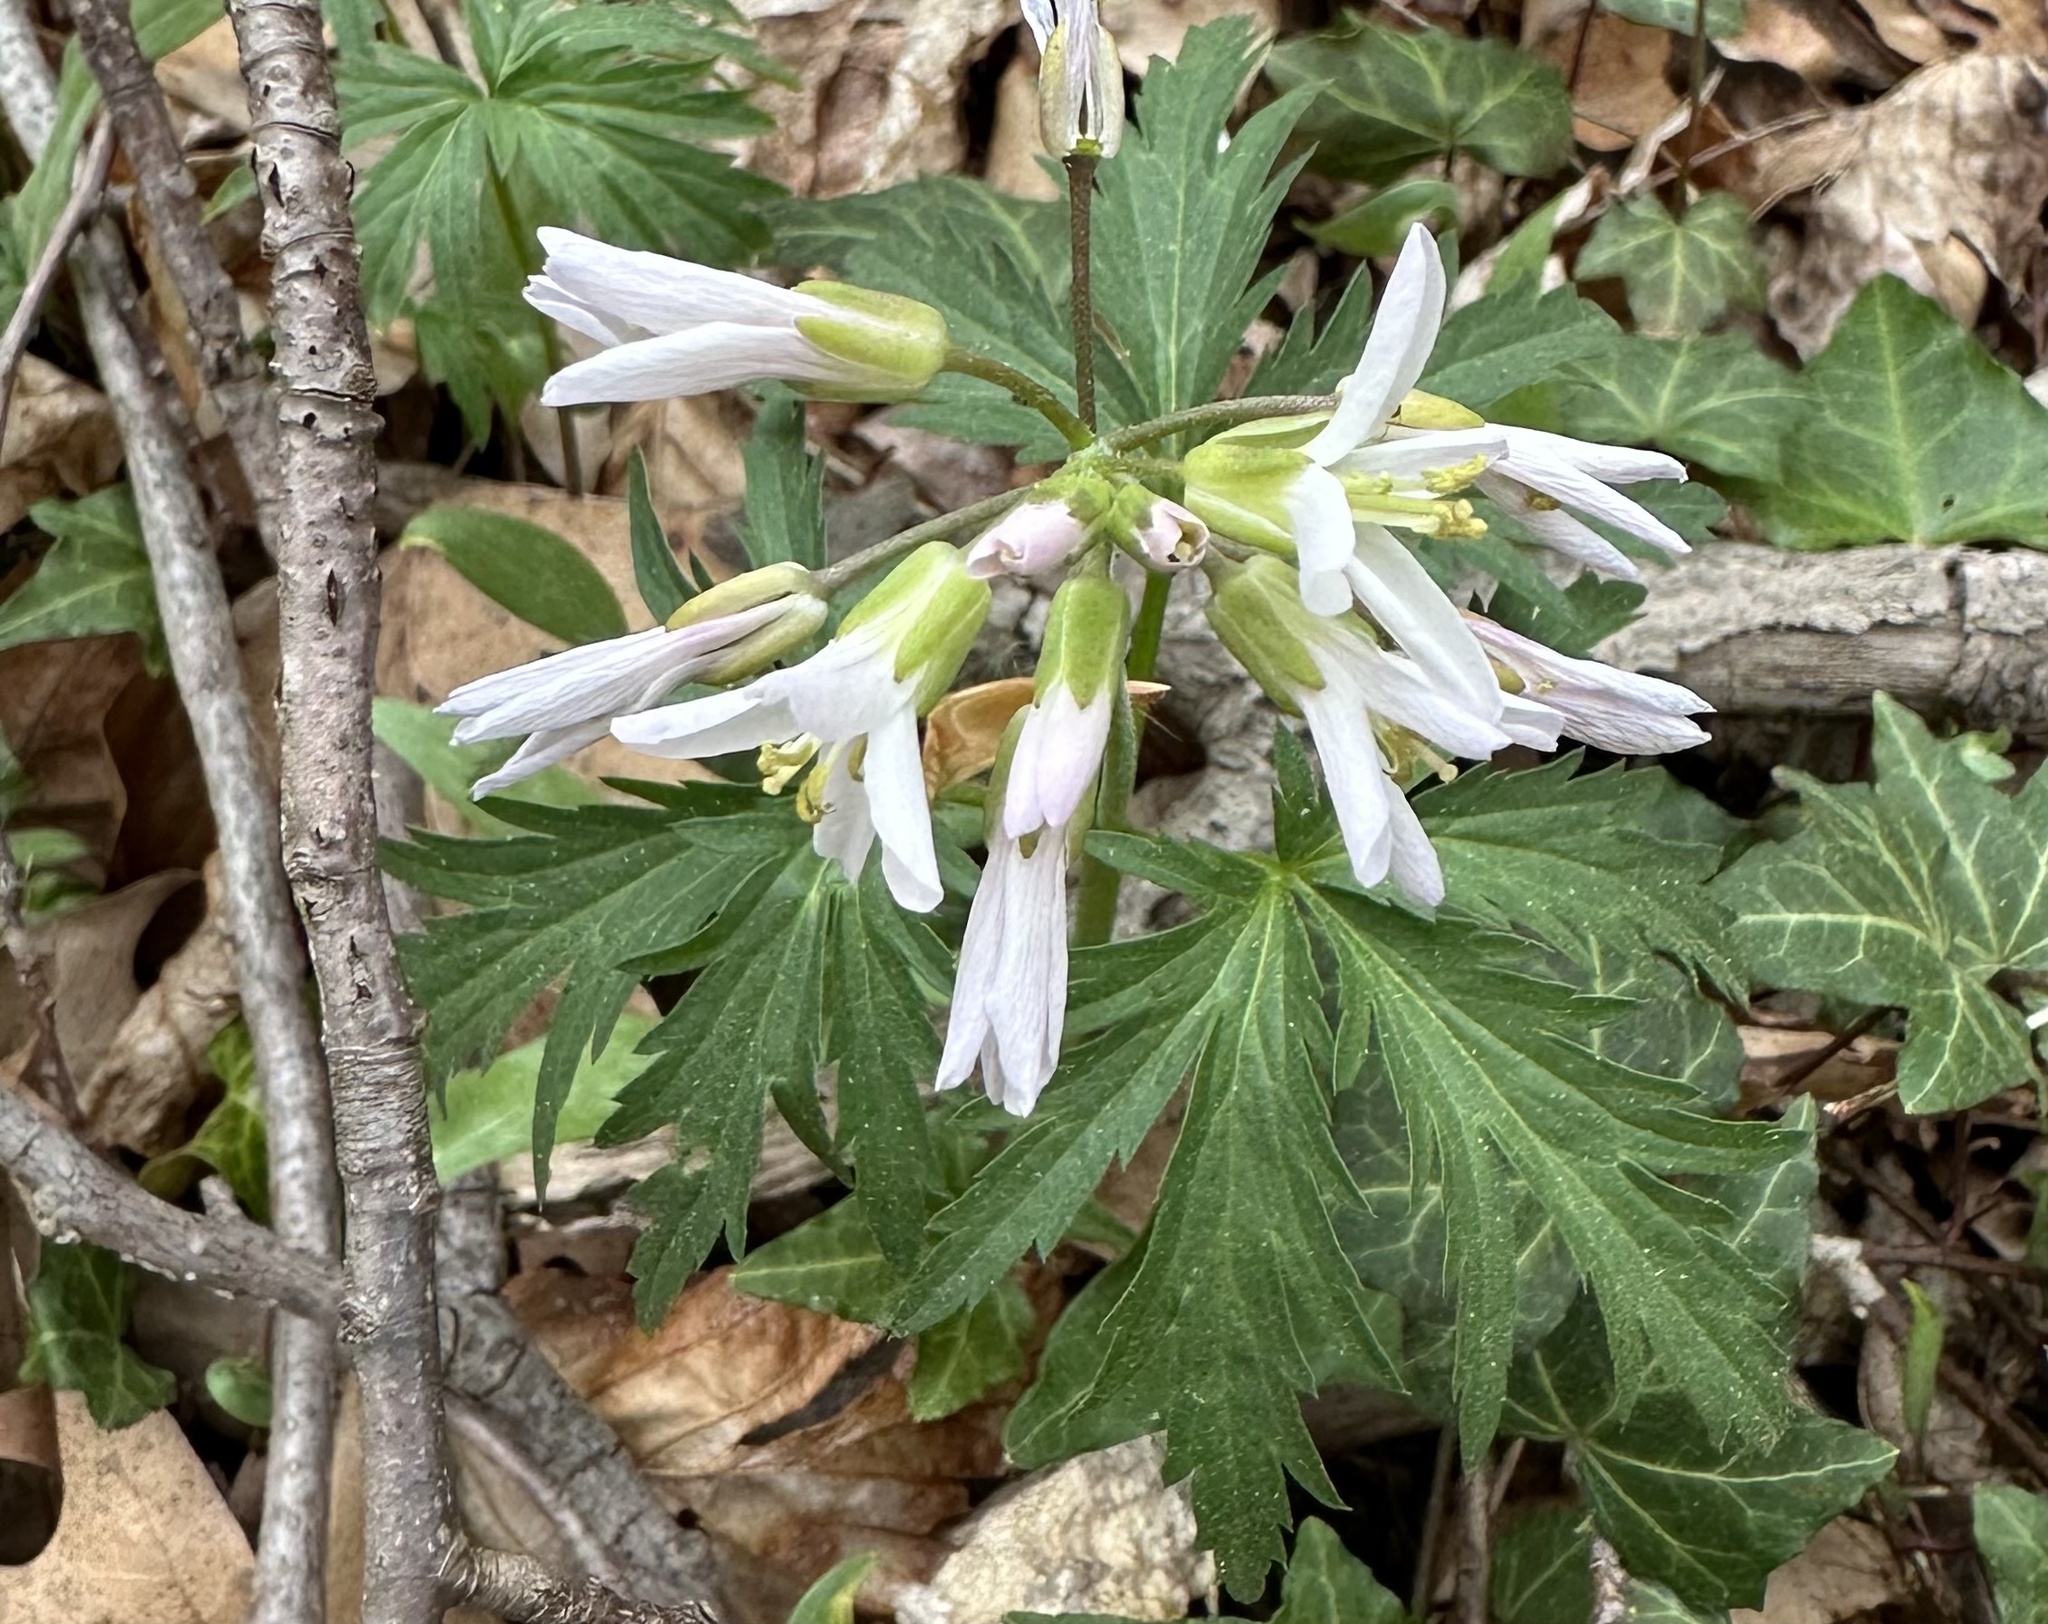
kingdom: Plantae
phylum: Tracheophyta
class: Magnoliopsida
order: Brassicales
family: Brassicaceae
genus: Cardamine
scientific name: Cardamine concatenata
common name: Cut-leaf toothcup
